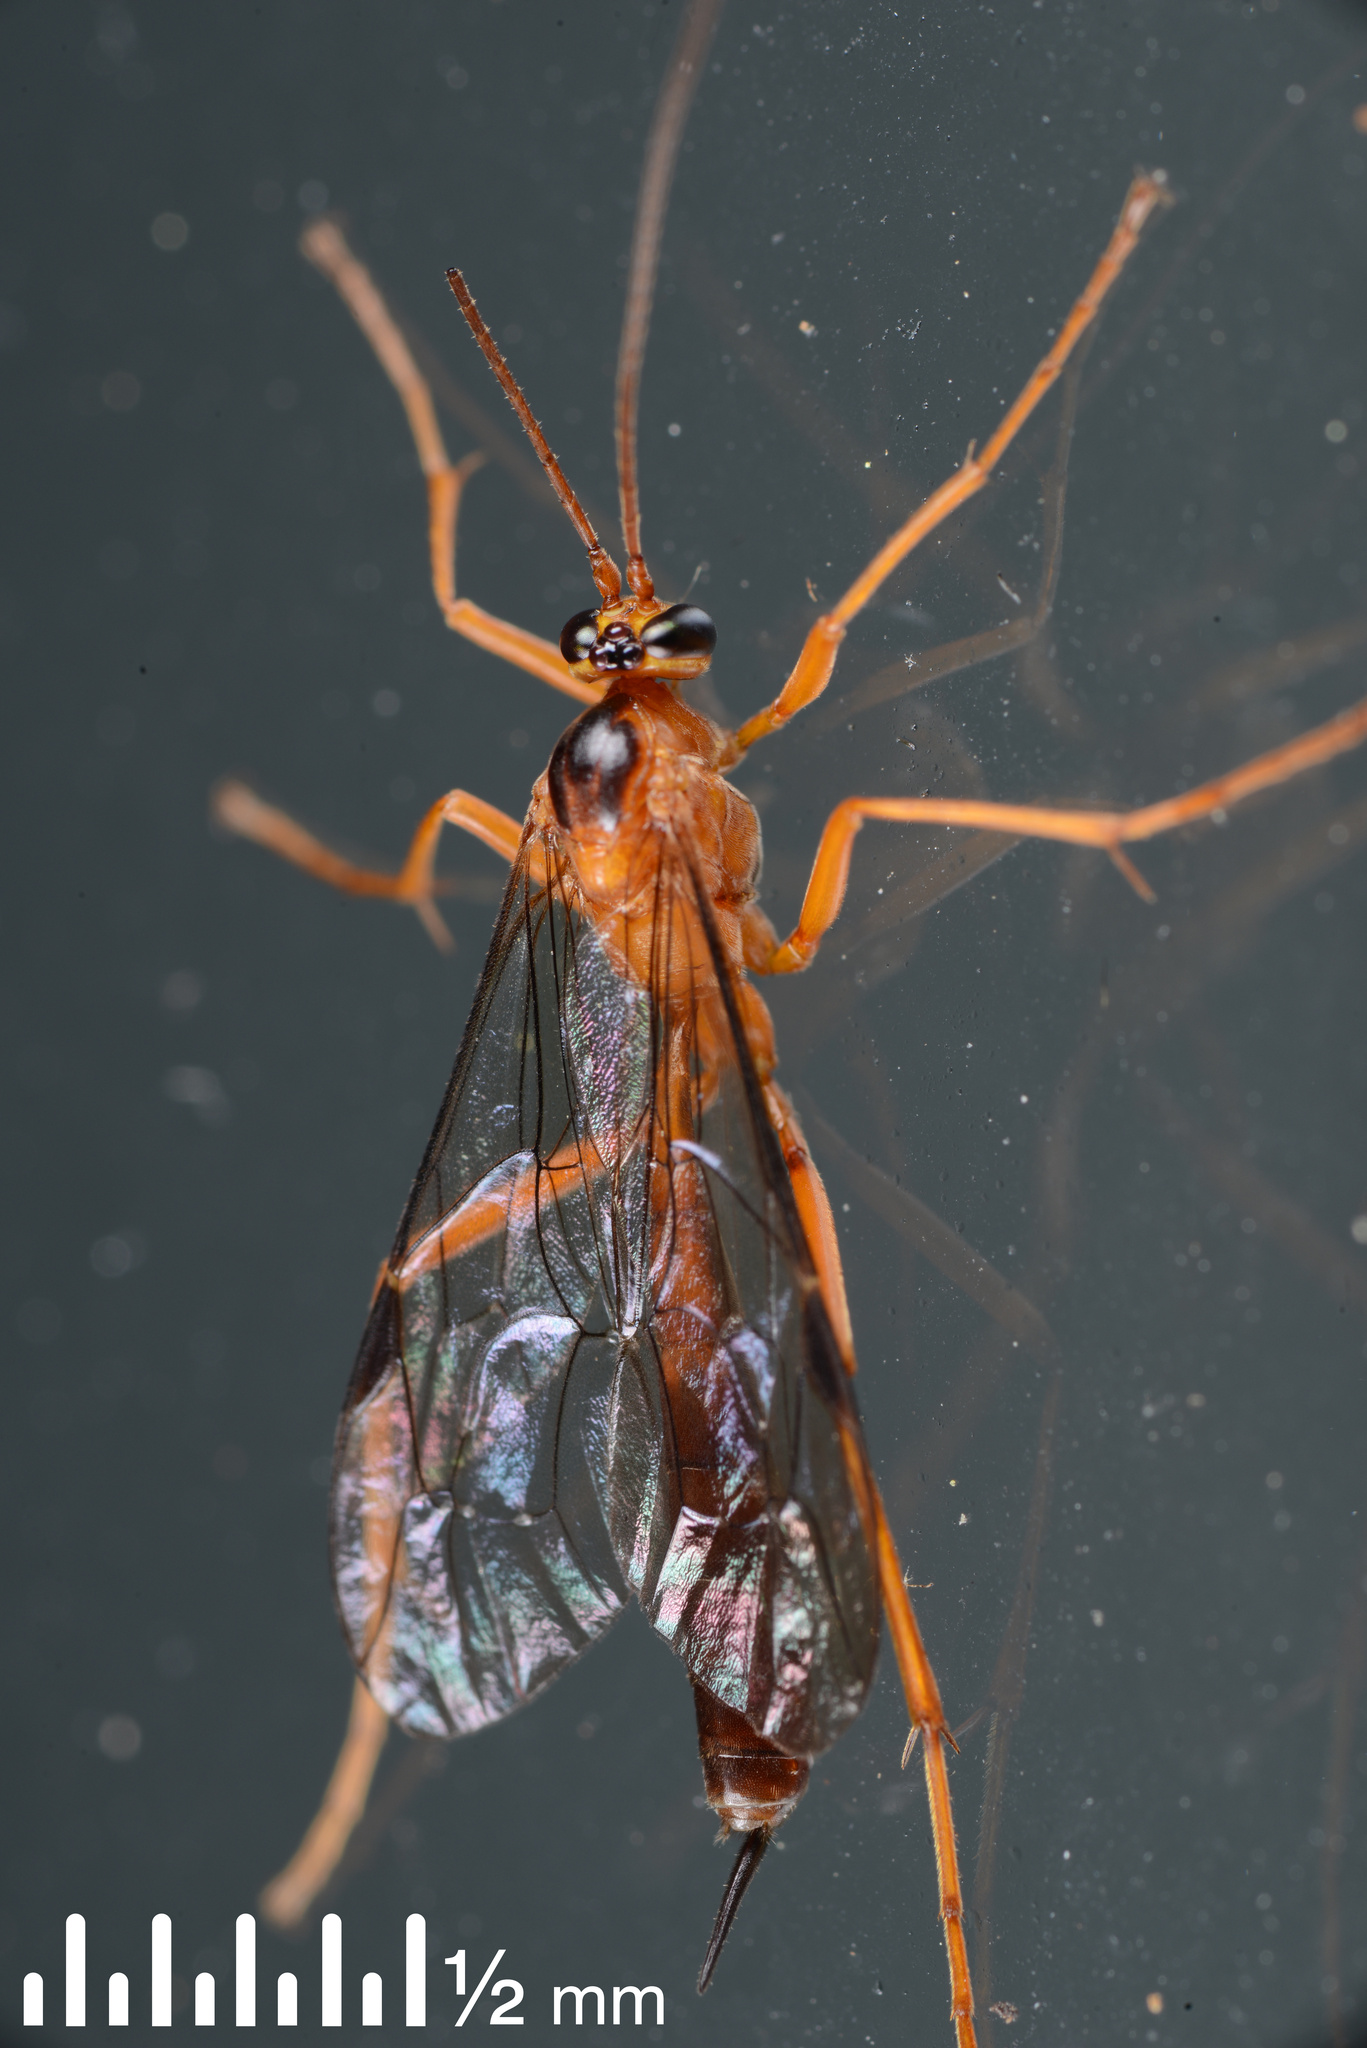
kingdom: Animalia
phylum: Arthropoda
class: Insecta
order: Hymenoptera
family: Ichneumonidae
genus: Netelia
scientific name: Netelia ephippiata
